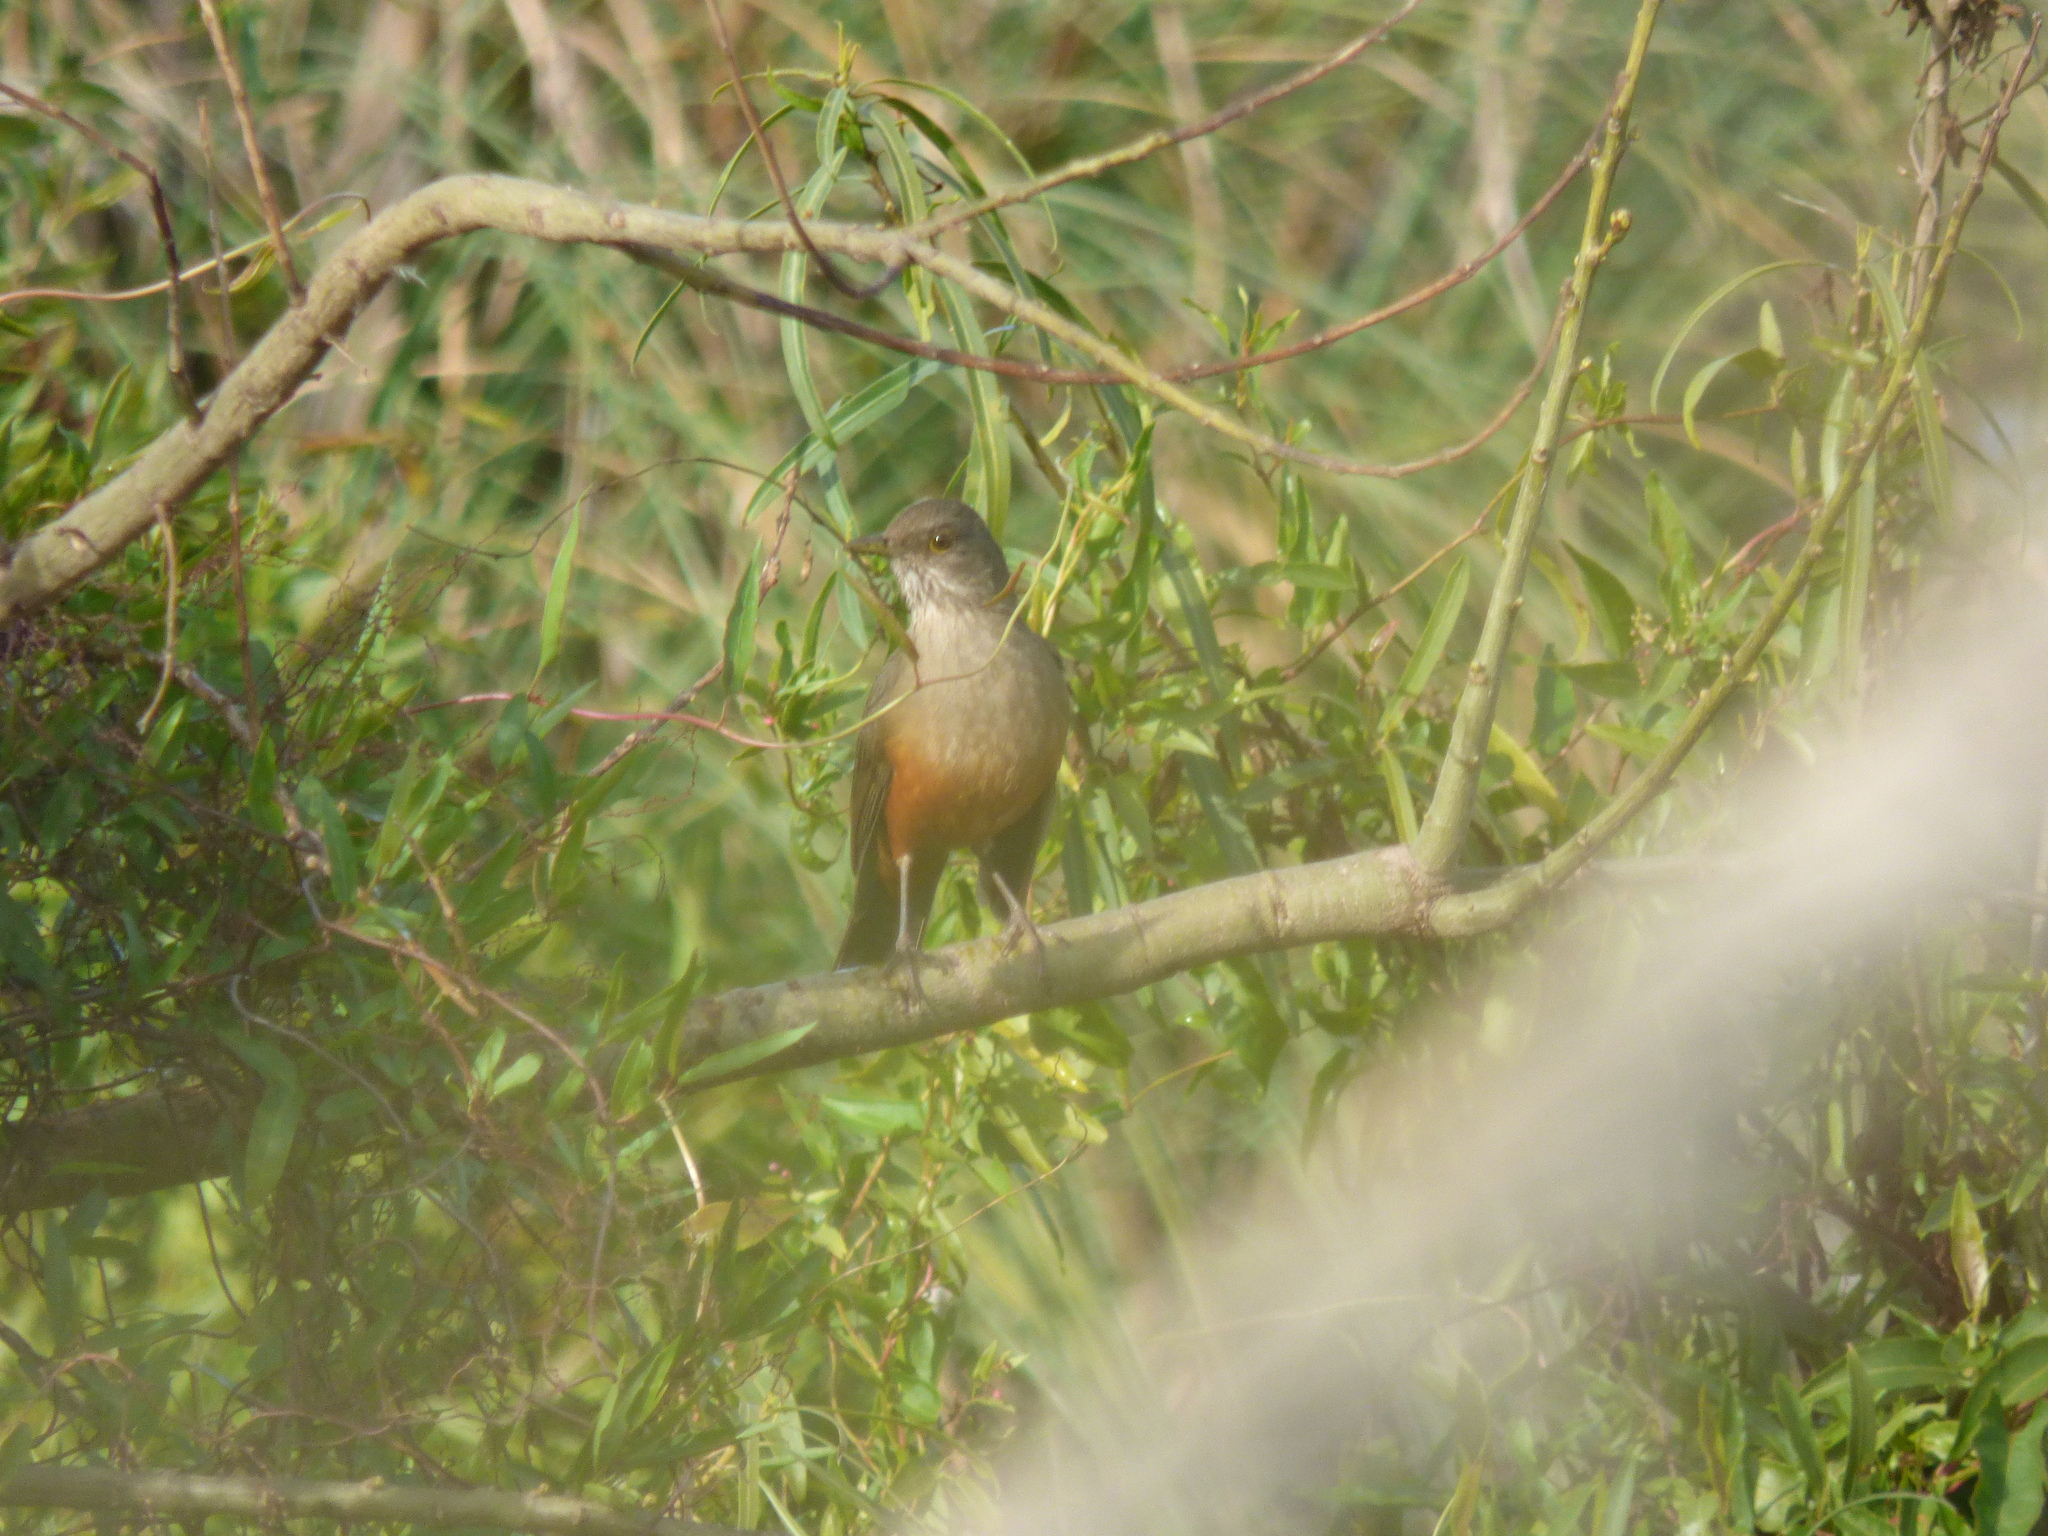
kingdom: Animalia
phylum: Chordata
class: Aves
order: Passeriformes
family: Turdidae
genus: Turdus
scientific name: Turdus rufiventris
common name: Rufous-bellied thrush
